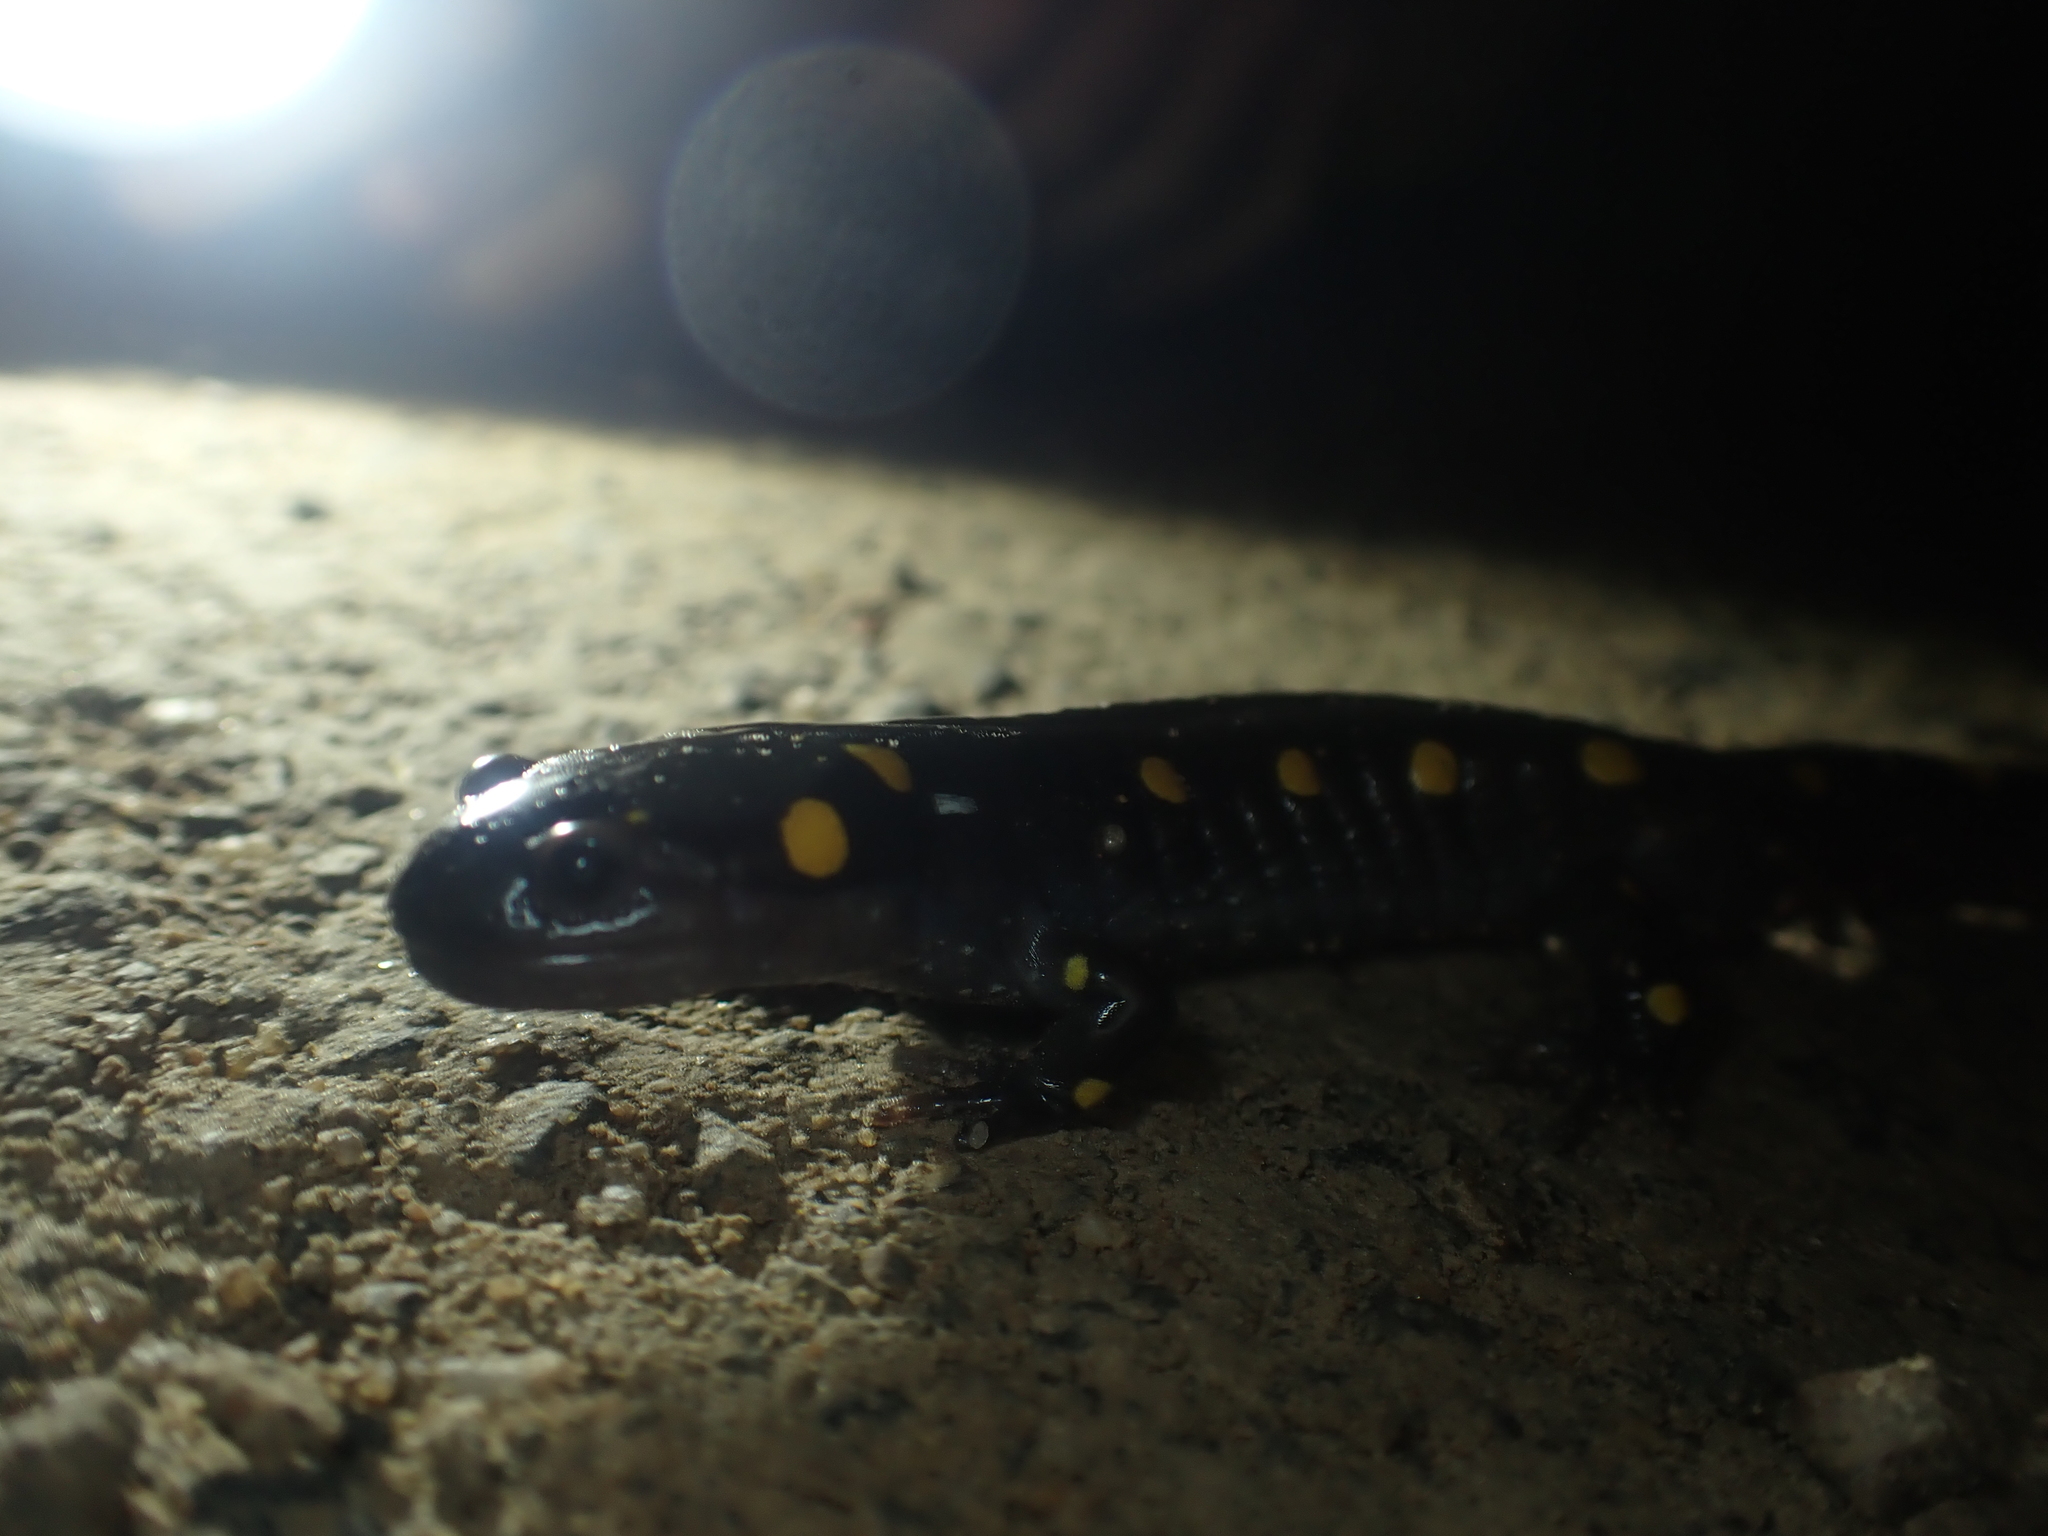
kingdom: Animalia
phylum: Chordata
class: Amphibia
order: Caudata
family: Ambystomatidae
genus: Ambystoma
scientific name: Ambystoma maculatum
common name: Spotted salamander
